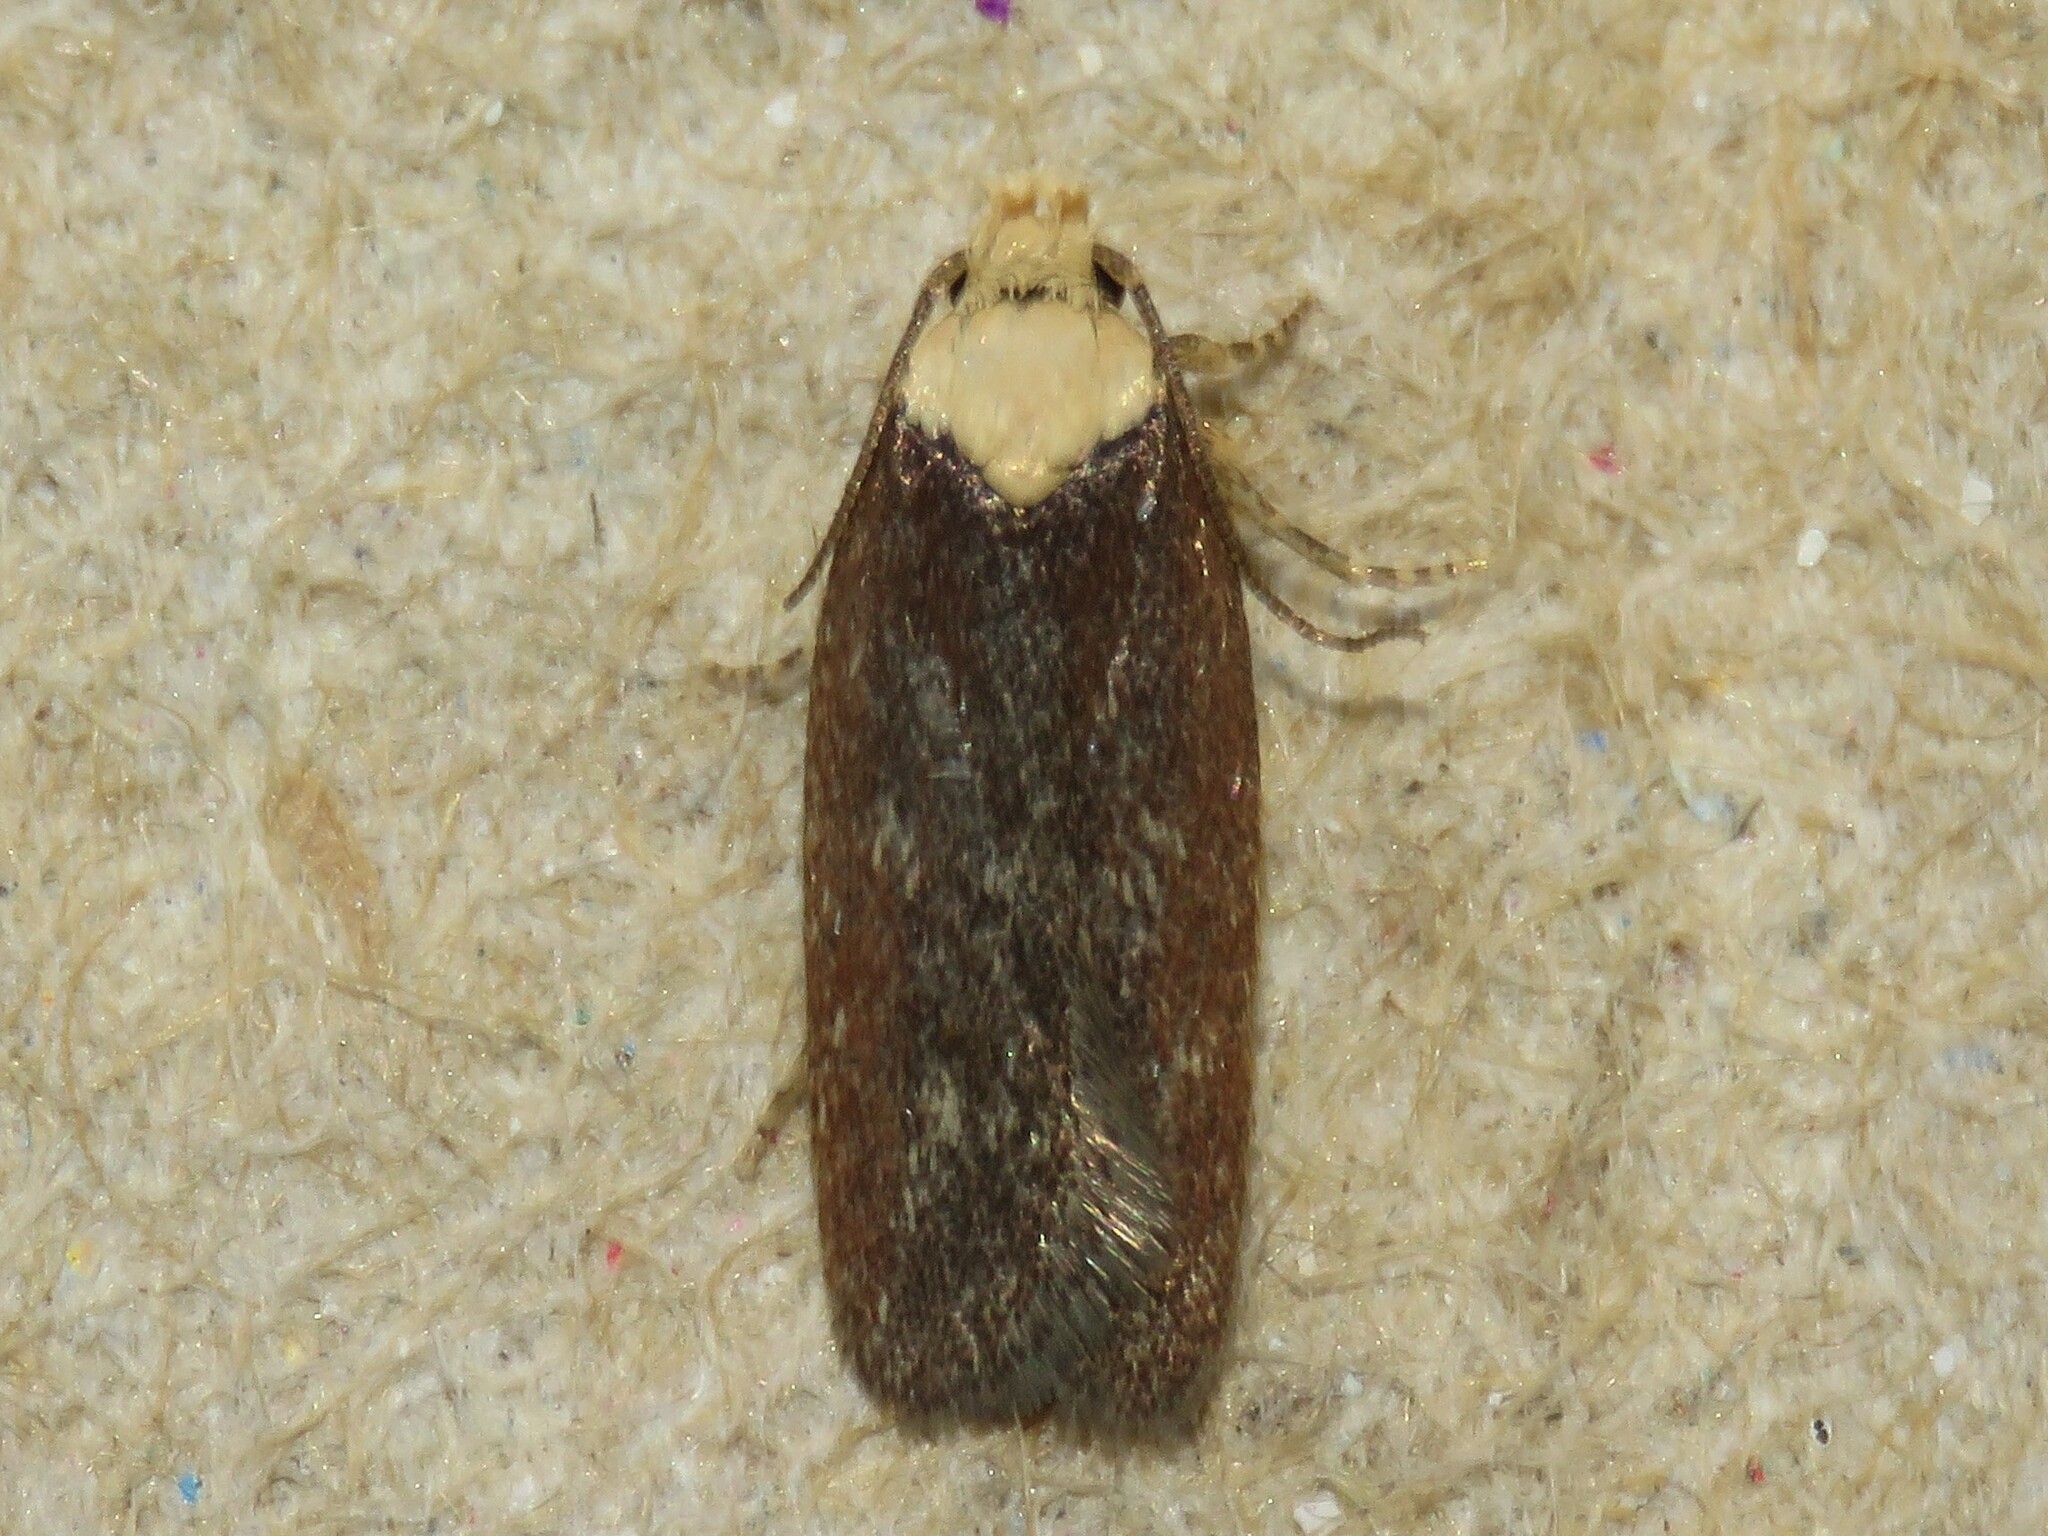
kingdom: Animalia
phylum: Arthropoda
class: Insecta
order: Lepidoptera
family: Depressariidae
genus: Depressaria
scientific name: Depressaria depressana
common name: Lost flat-body
